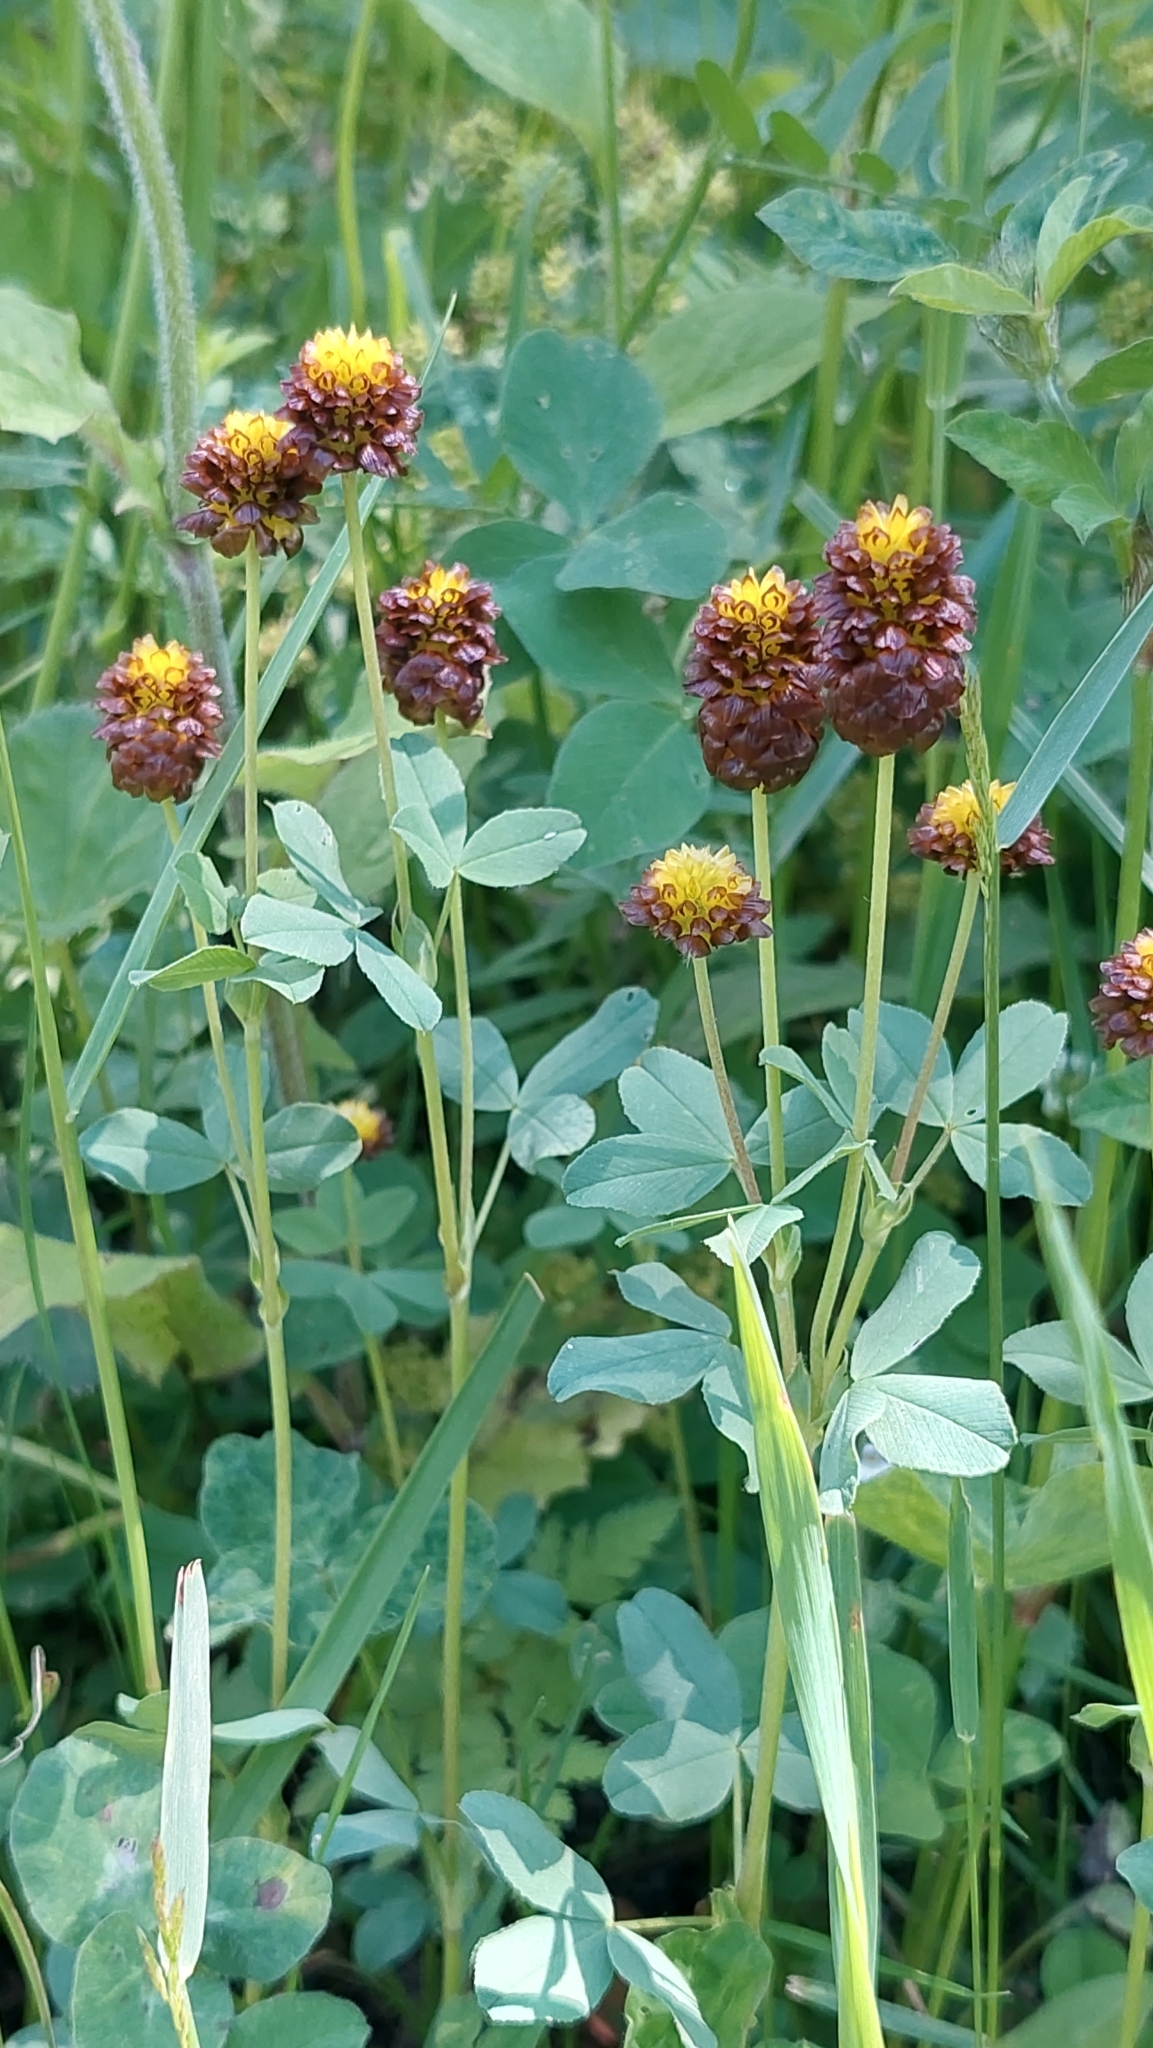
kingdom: Plantae
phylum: Tracheophyta
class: Magnoliopsida
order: Fabales
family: Fabaceae
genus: Trifolium
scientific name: Trifolium spadiceum
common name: Brown moor clover
